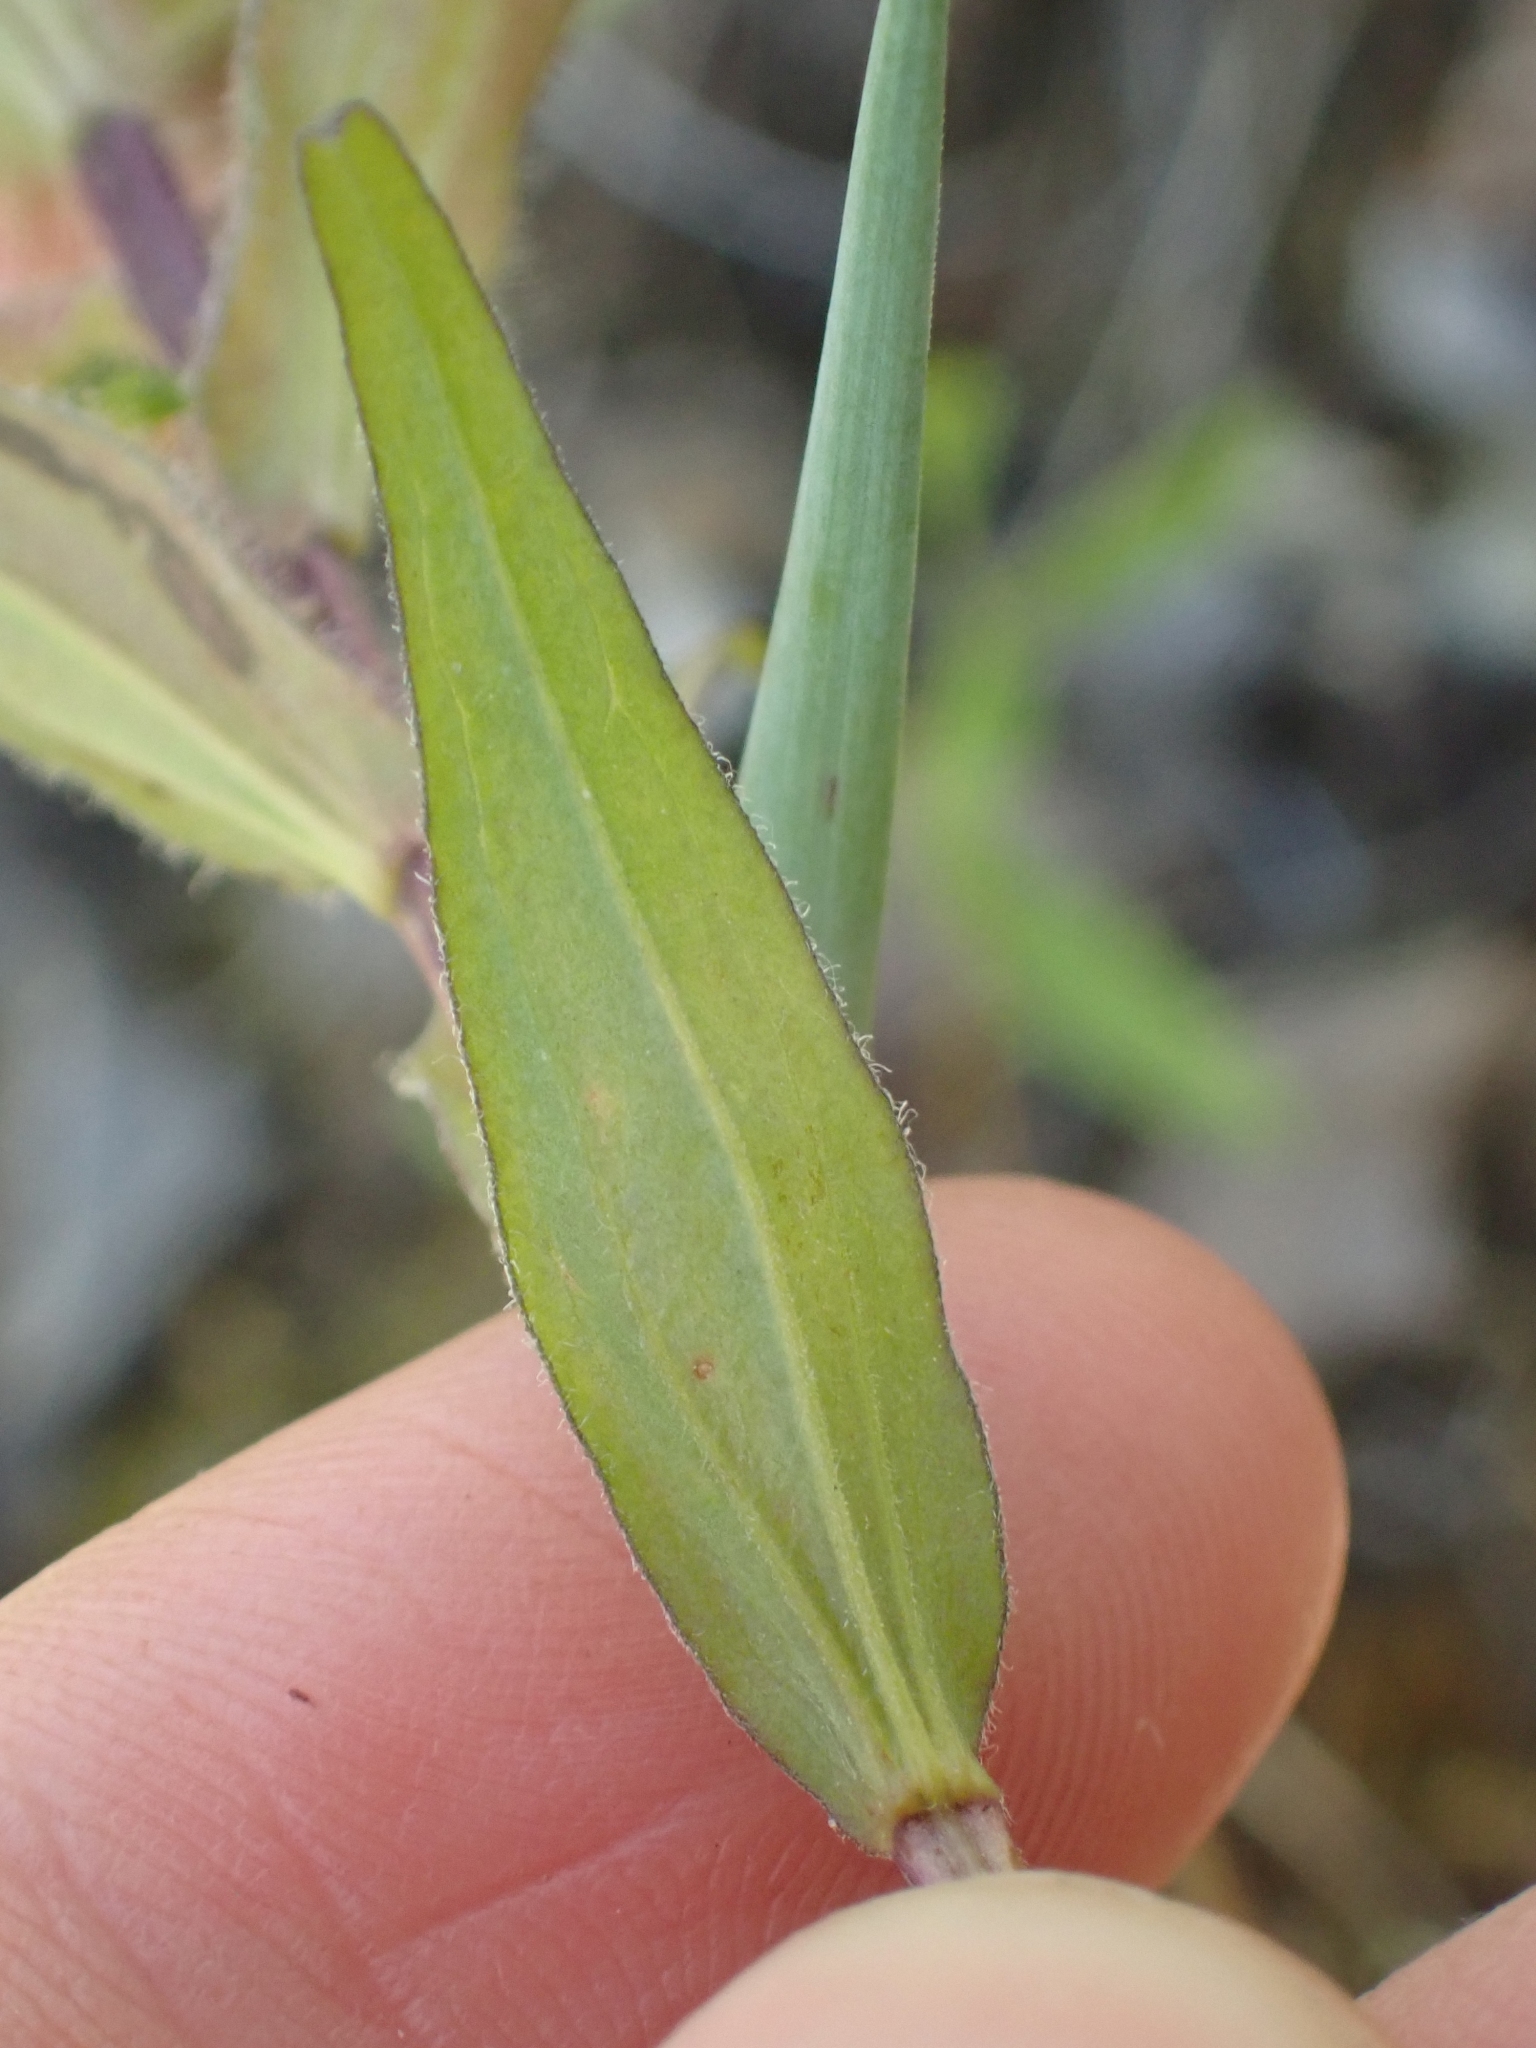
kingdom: Plantae
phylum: Tracheophyta
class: Magnoliopsida
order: Lamiales
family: Orobanchaceae
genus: Castilleja
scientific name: Castilleja miniata
